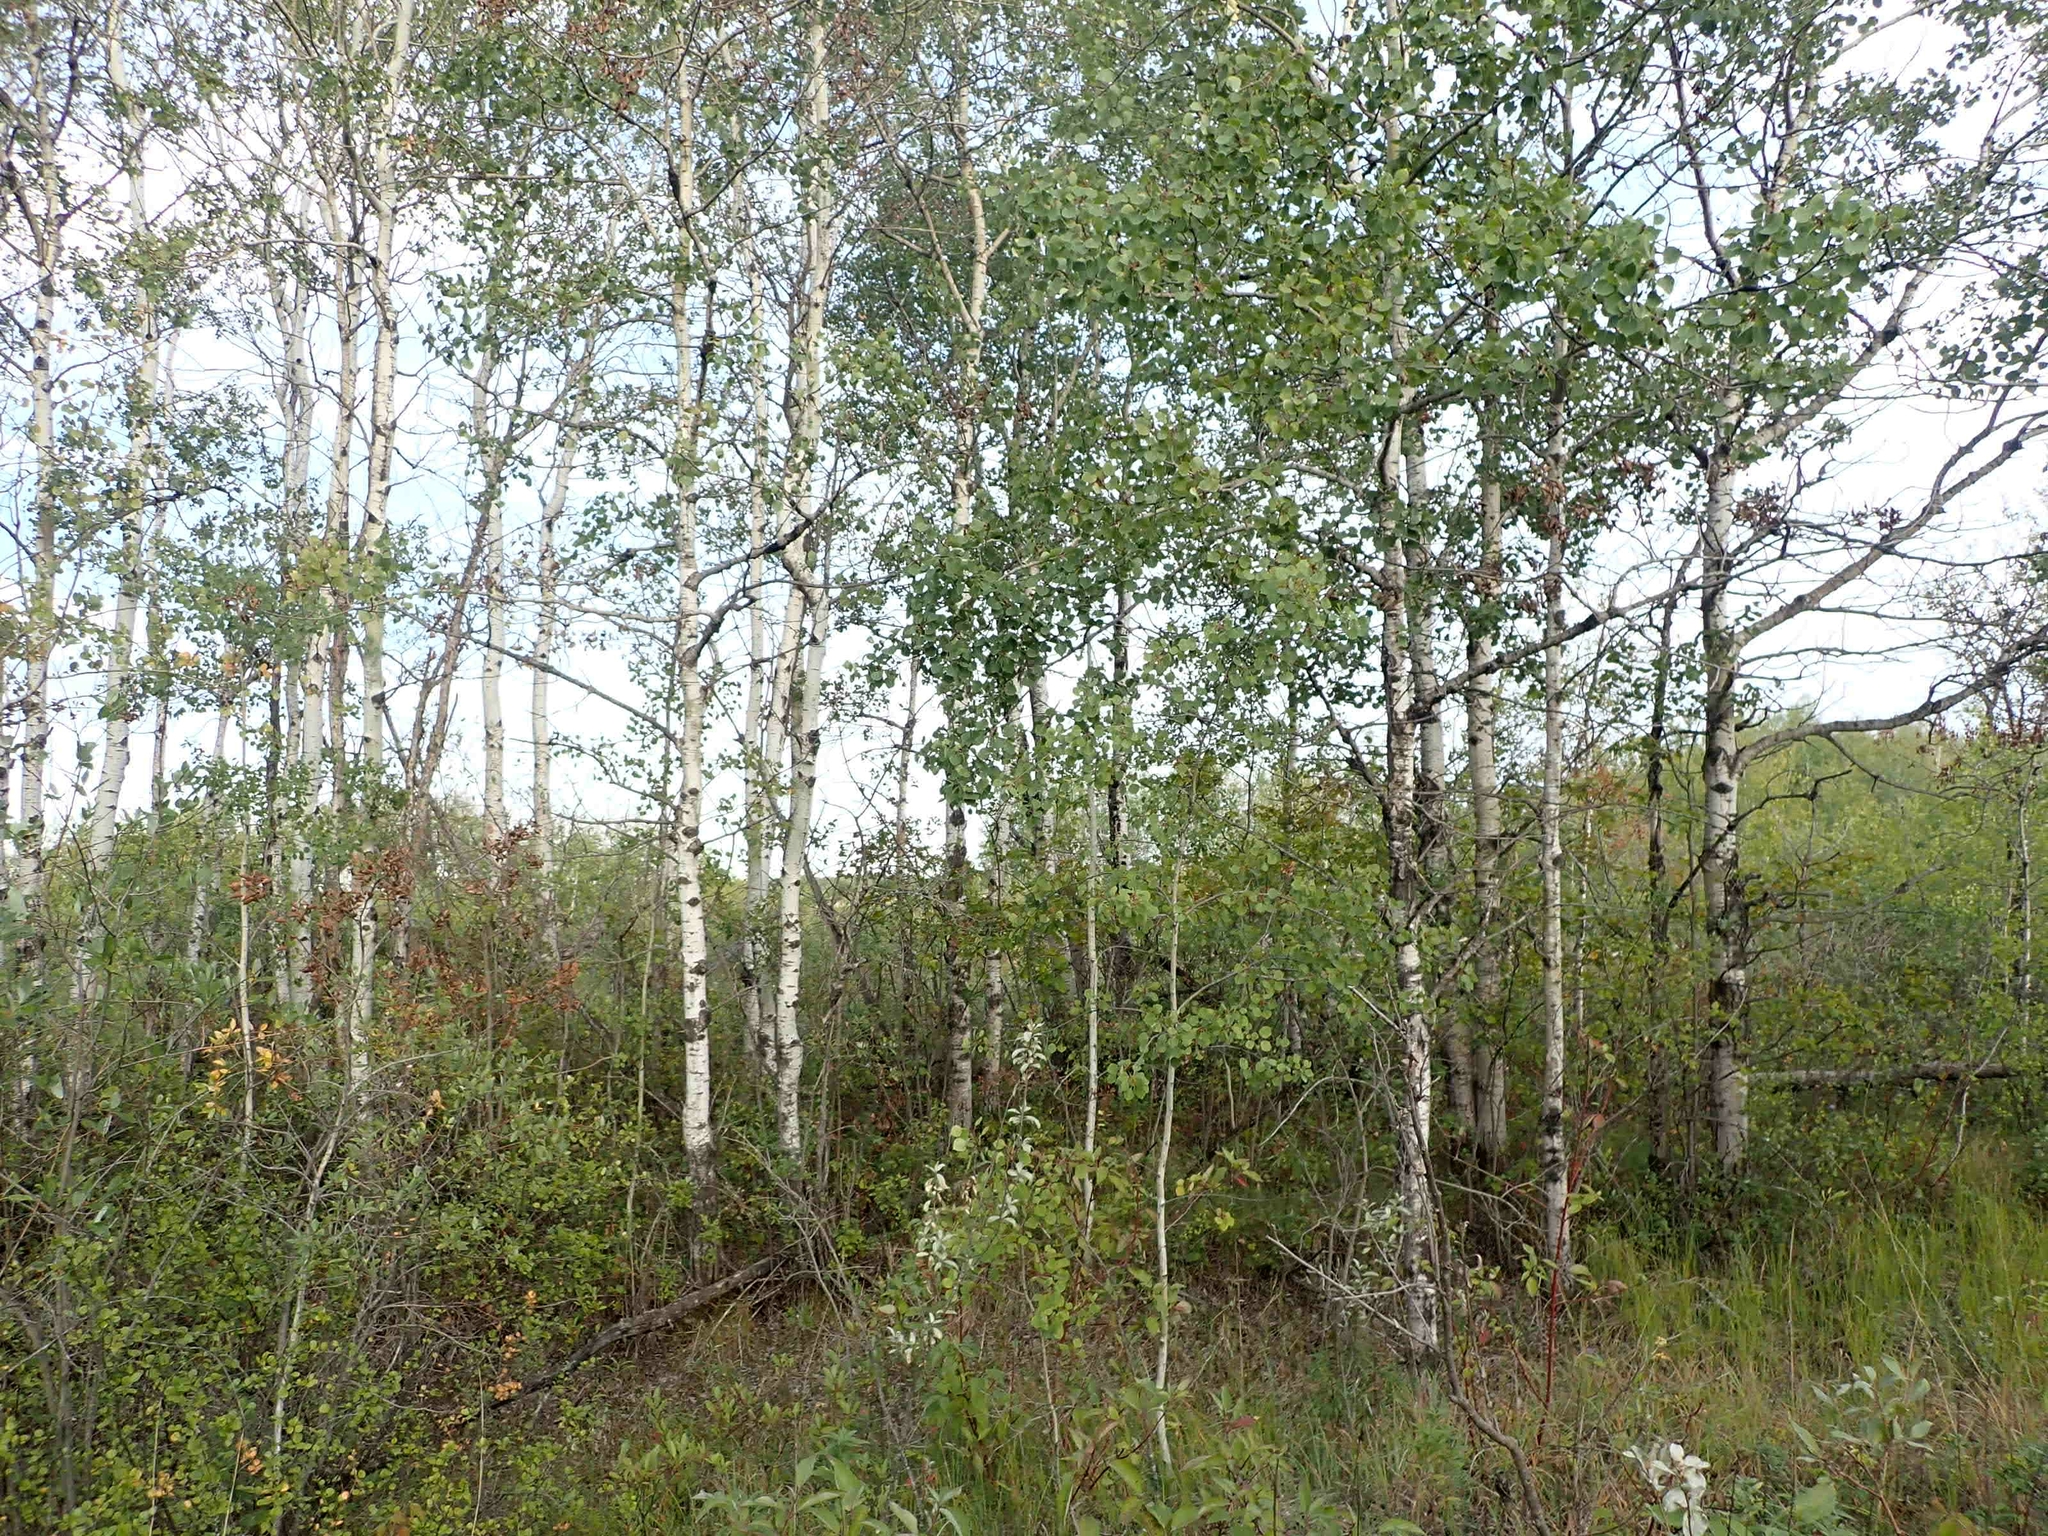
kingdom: Plantae
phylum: Tracheophyta
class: Magnoliopsida
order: Malpighiales
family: Salicaceae
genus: Populus
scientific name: Populus tremuloides
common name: Quaking aspen
